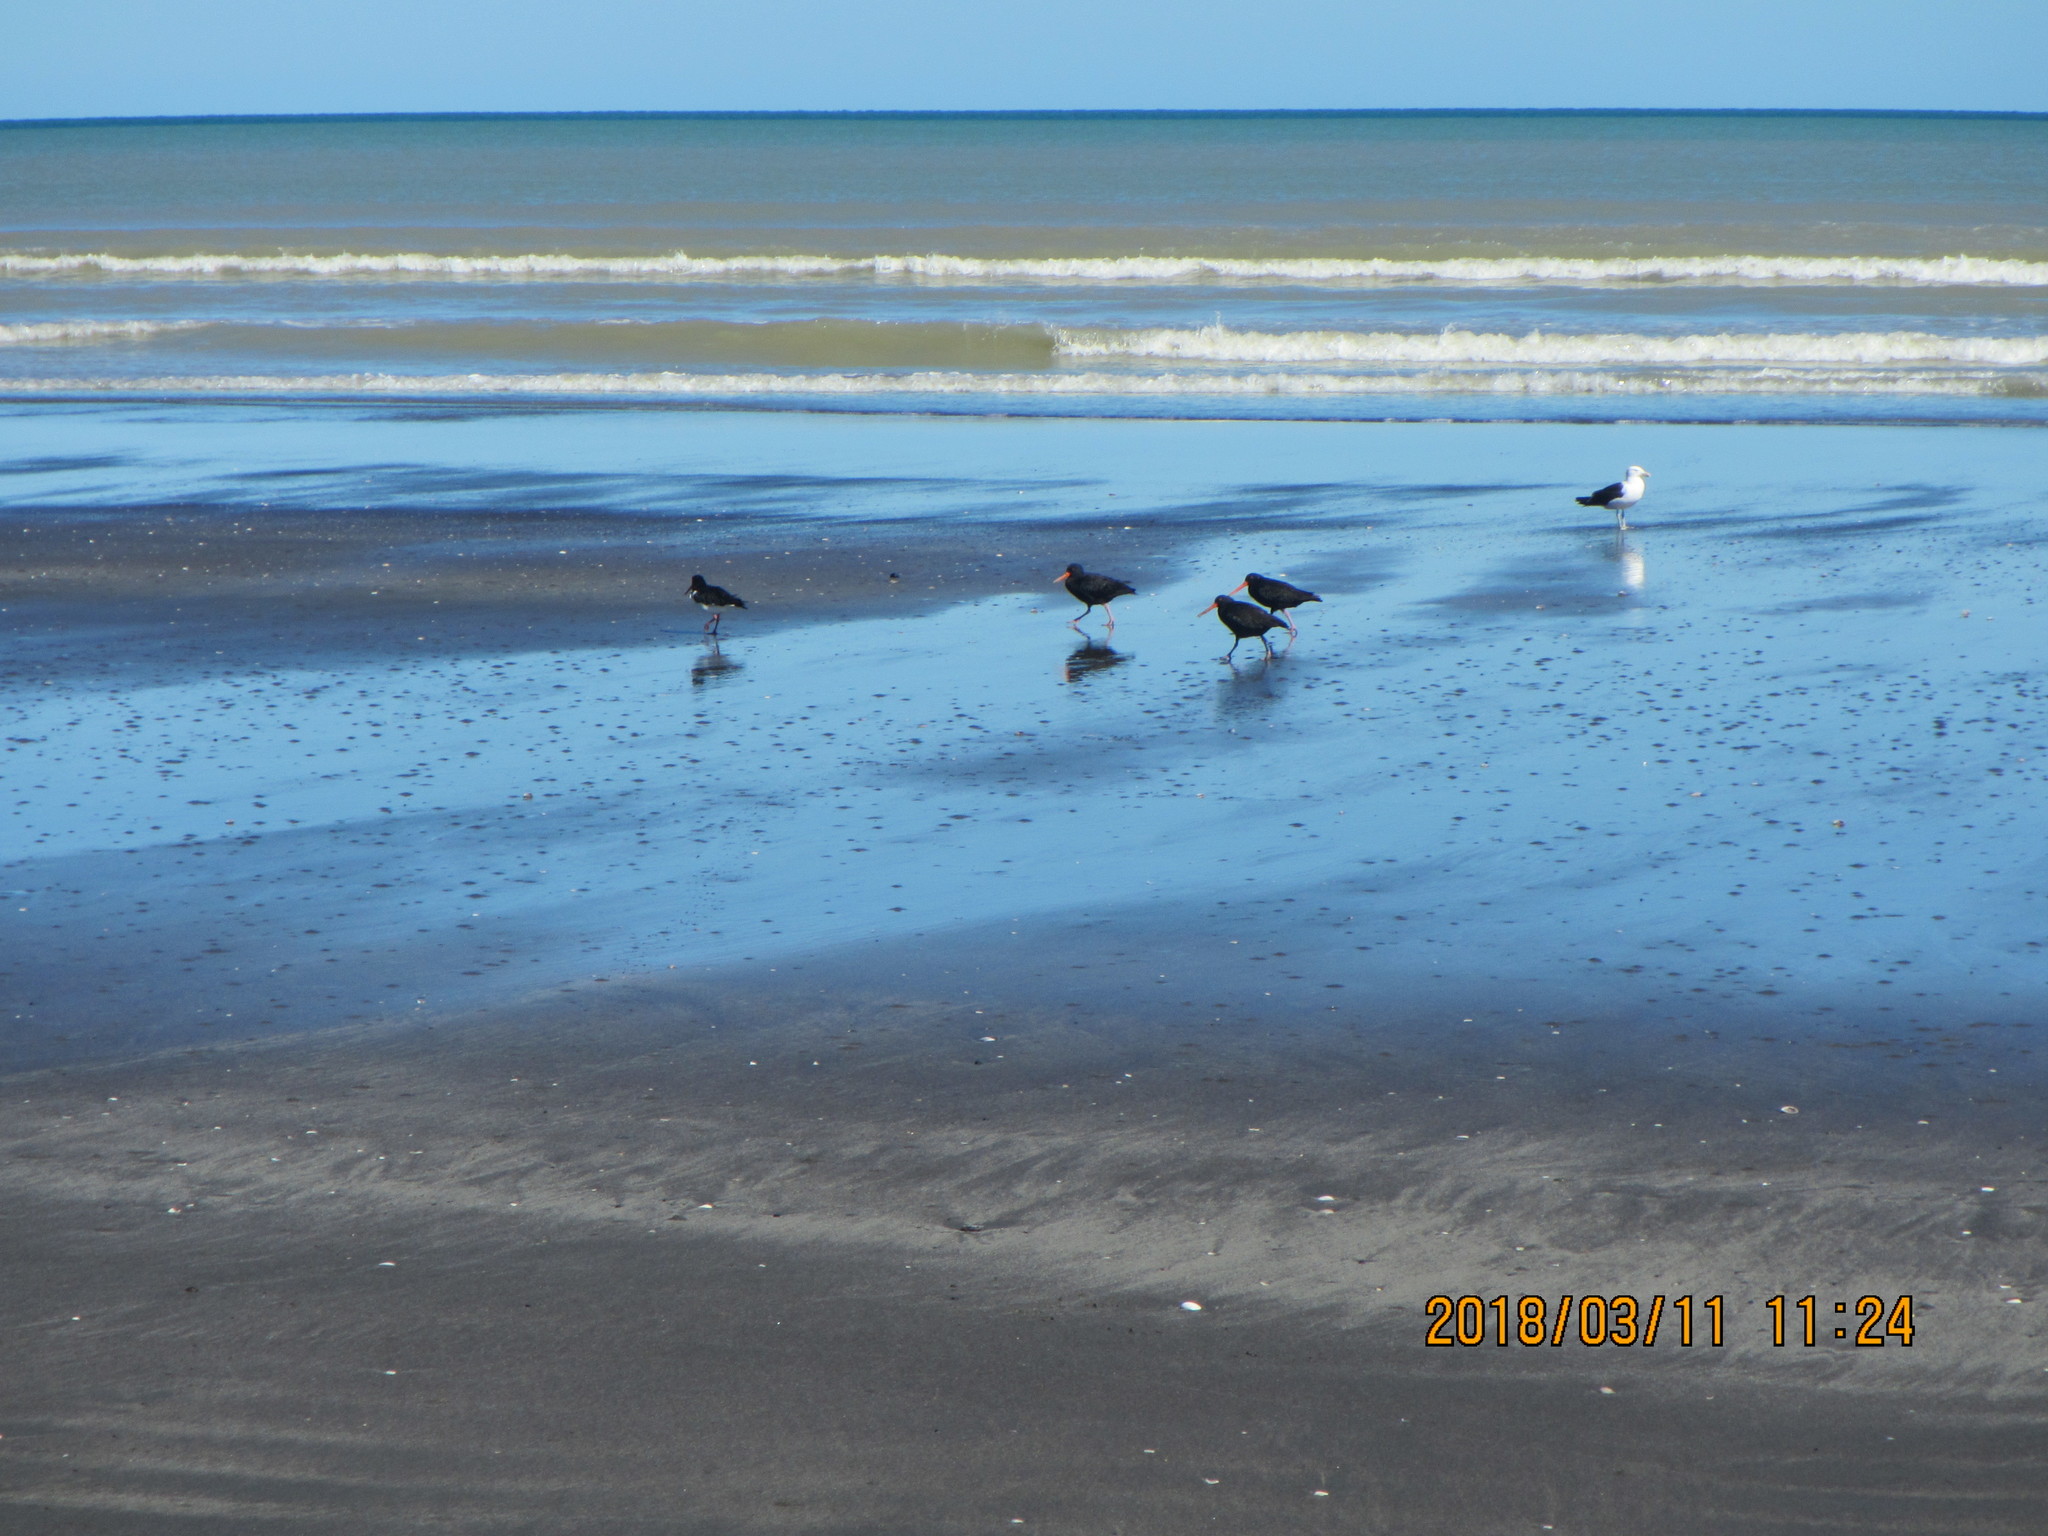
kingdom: Animalia
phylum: Chordata
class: Aves
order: Charadriiformes
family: Haematopodidae
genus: Haematopus
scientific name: Haematopus unicolor
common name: Variable oystercatcher
